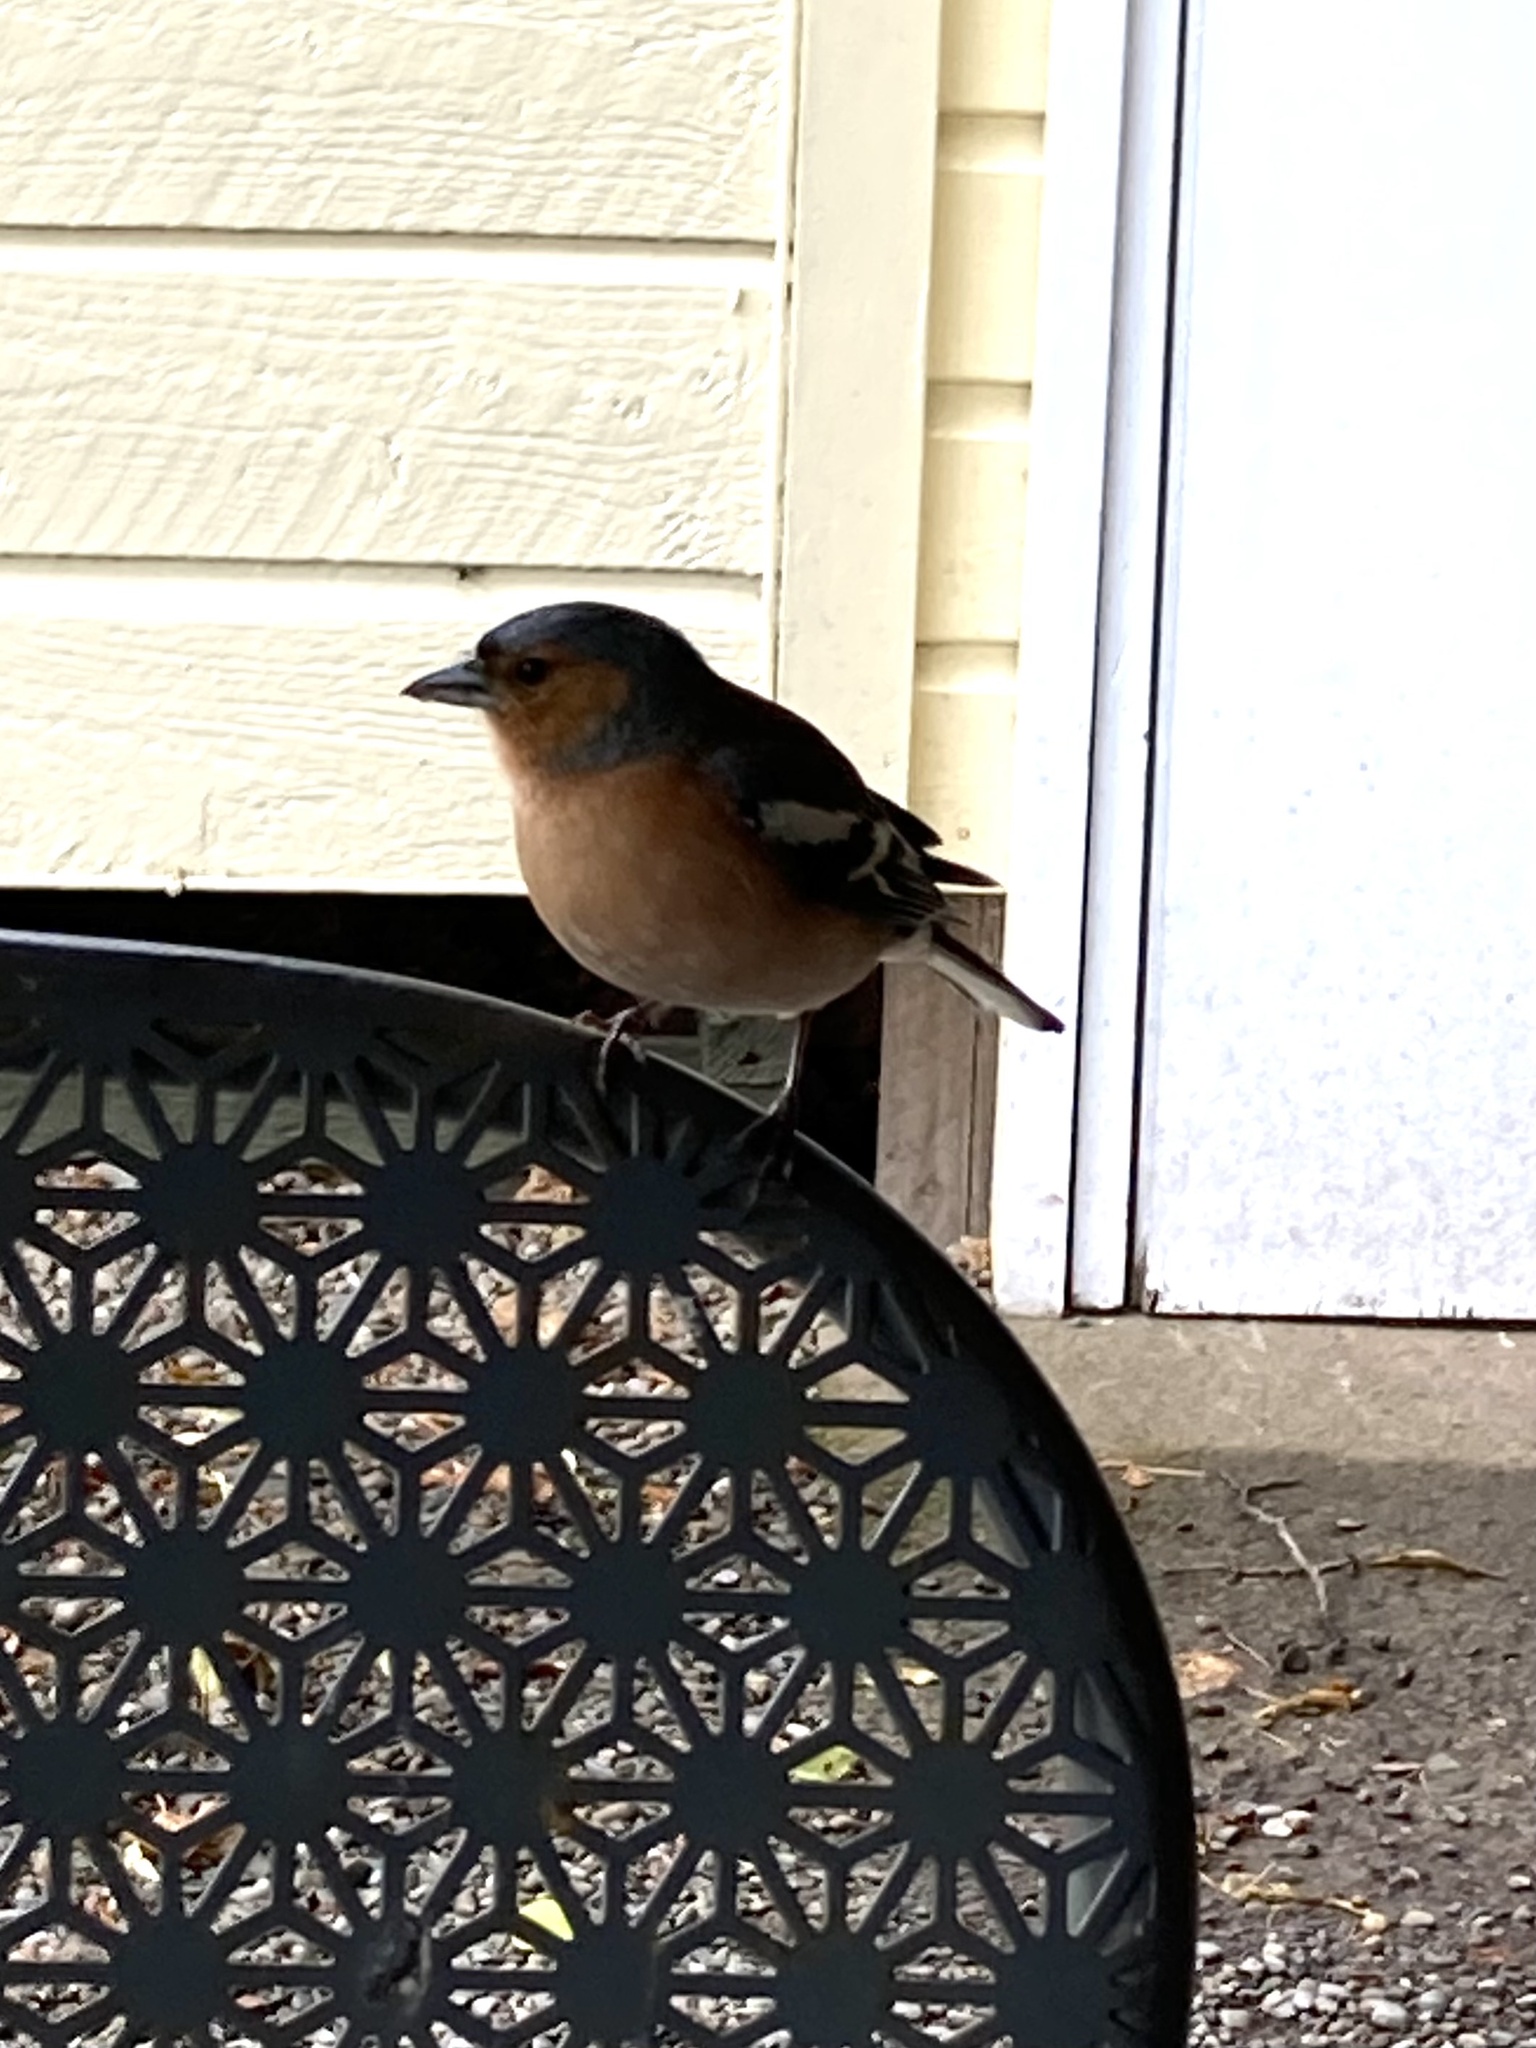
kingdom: Animalia
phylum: Chordata
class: Aves
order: Passeriformes
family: Fringillidae
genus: Fringilla
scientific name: Fringilla coelebs
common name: Common chaffinch
